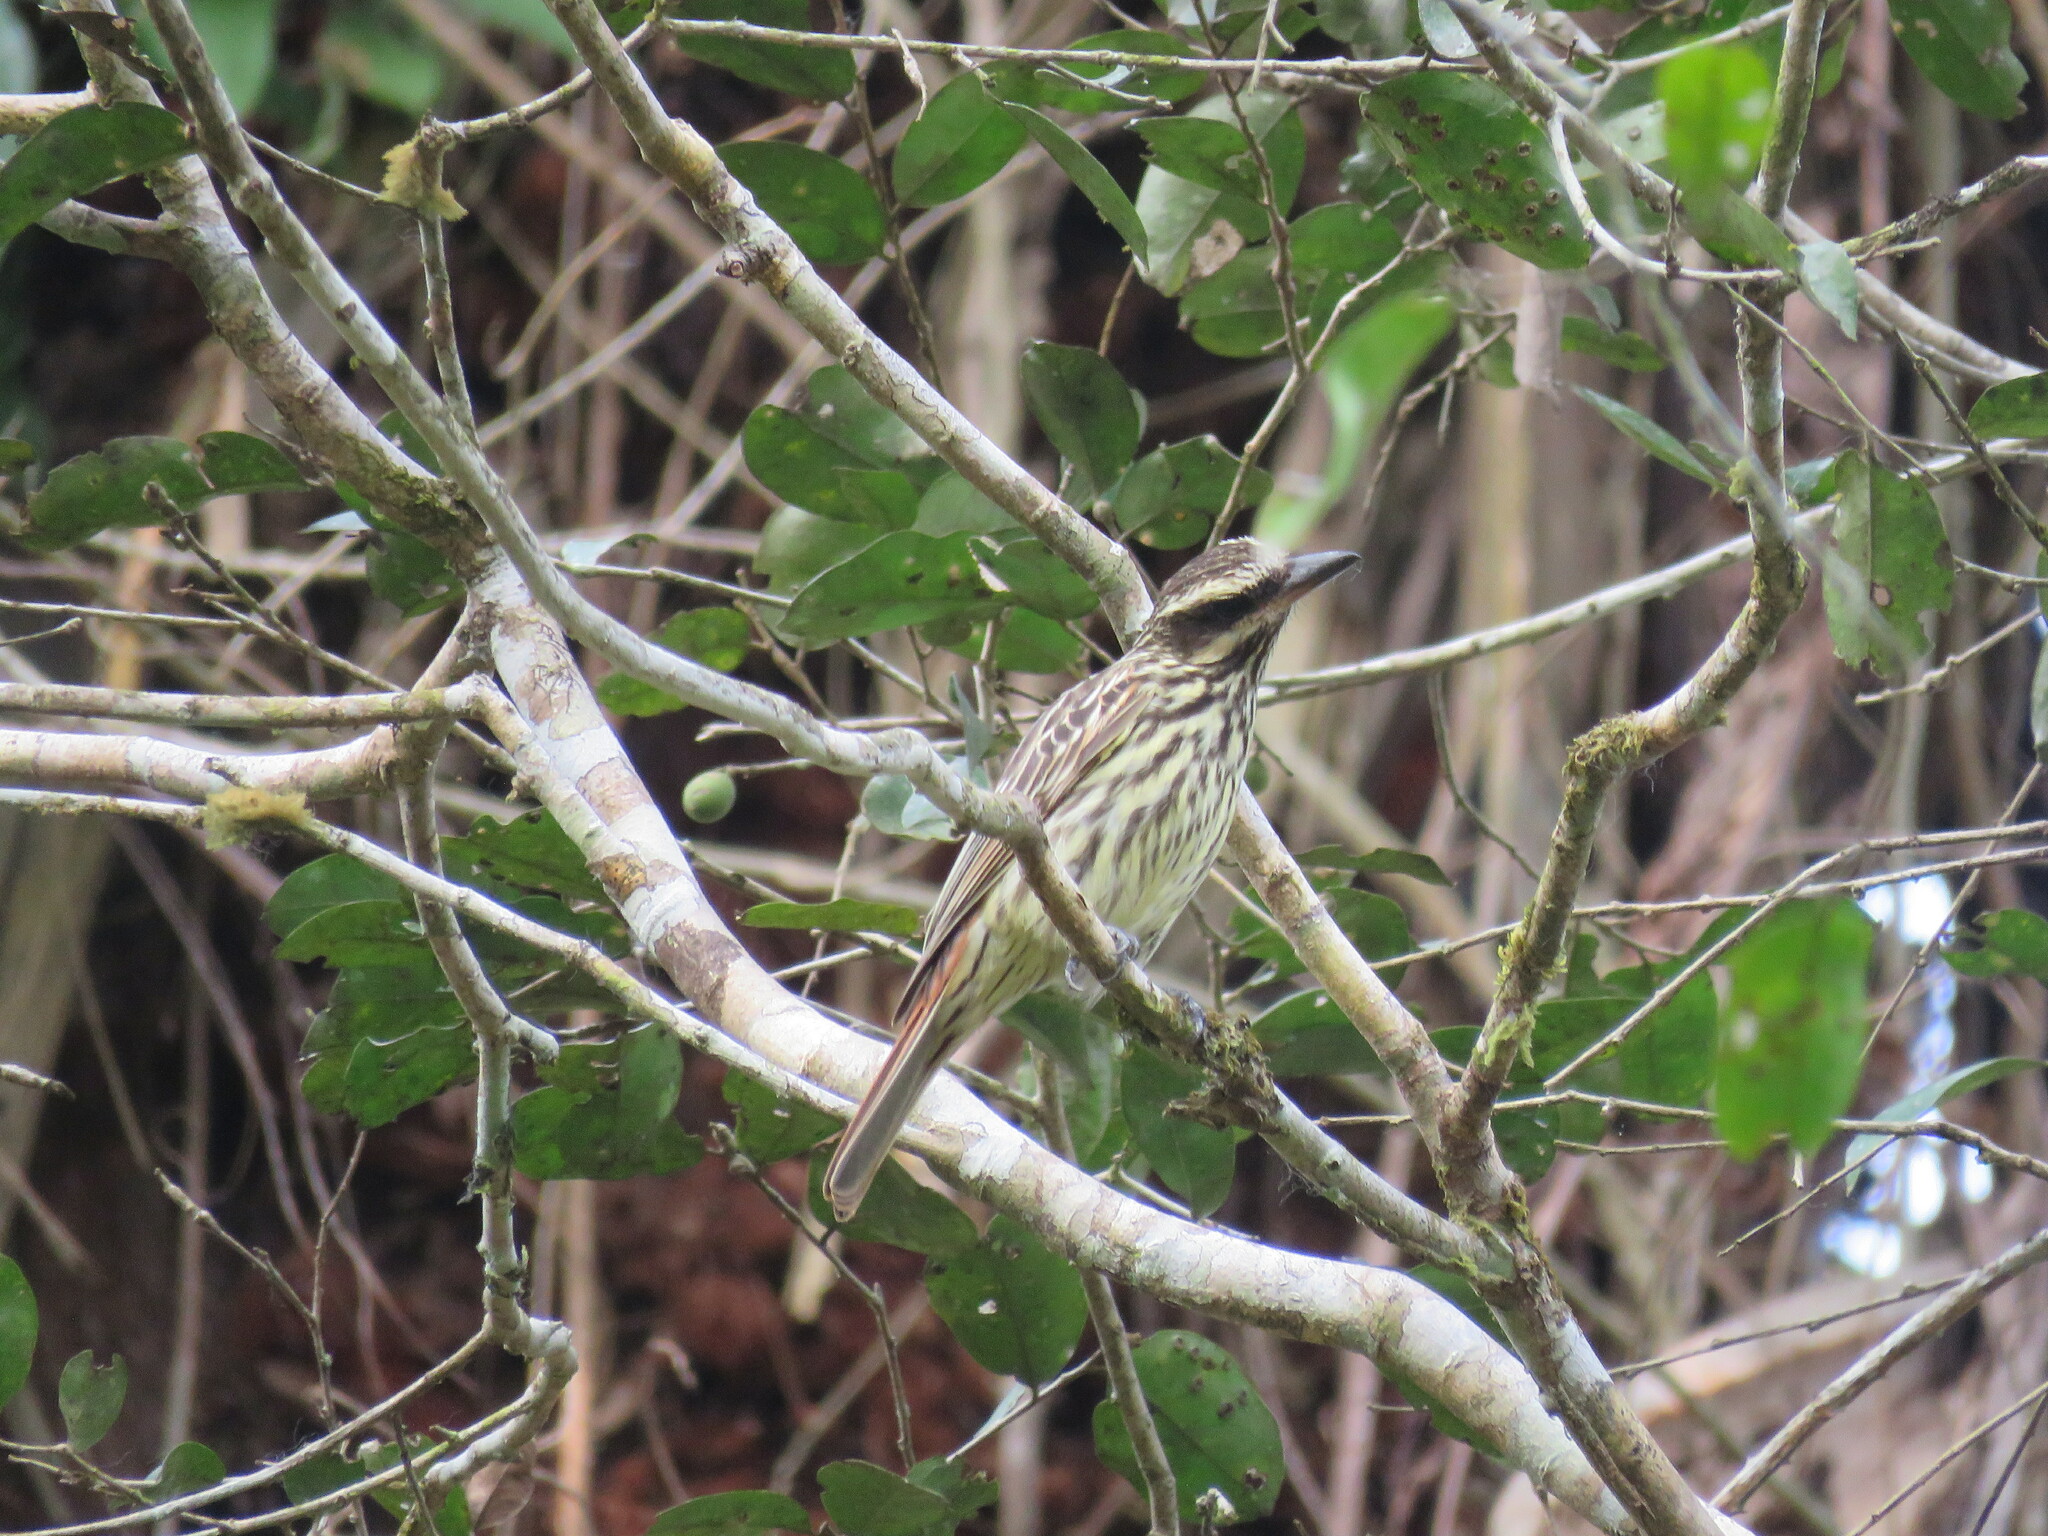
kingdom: Animalia
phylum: Chordata
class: Aves
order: Passeriformes
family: Tyrannidae
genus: Myiodynastes
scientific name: Myiodynastes maculatus
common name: Streaked flycatcher
